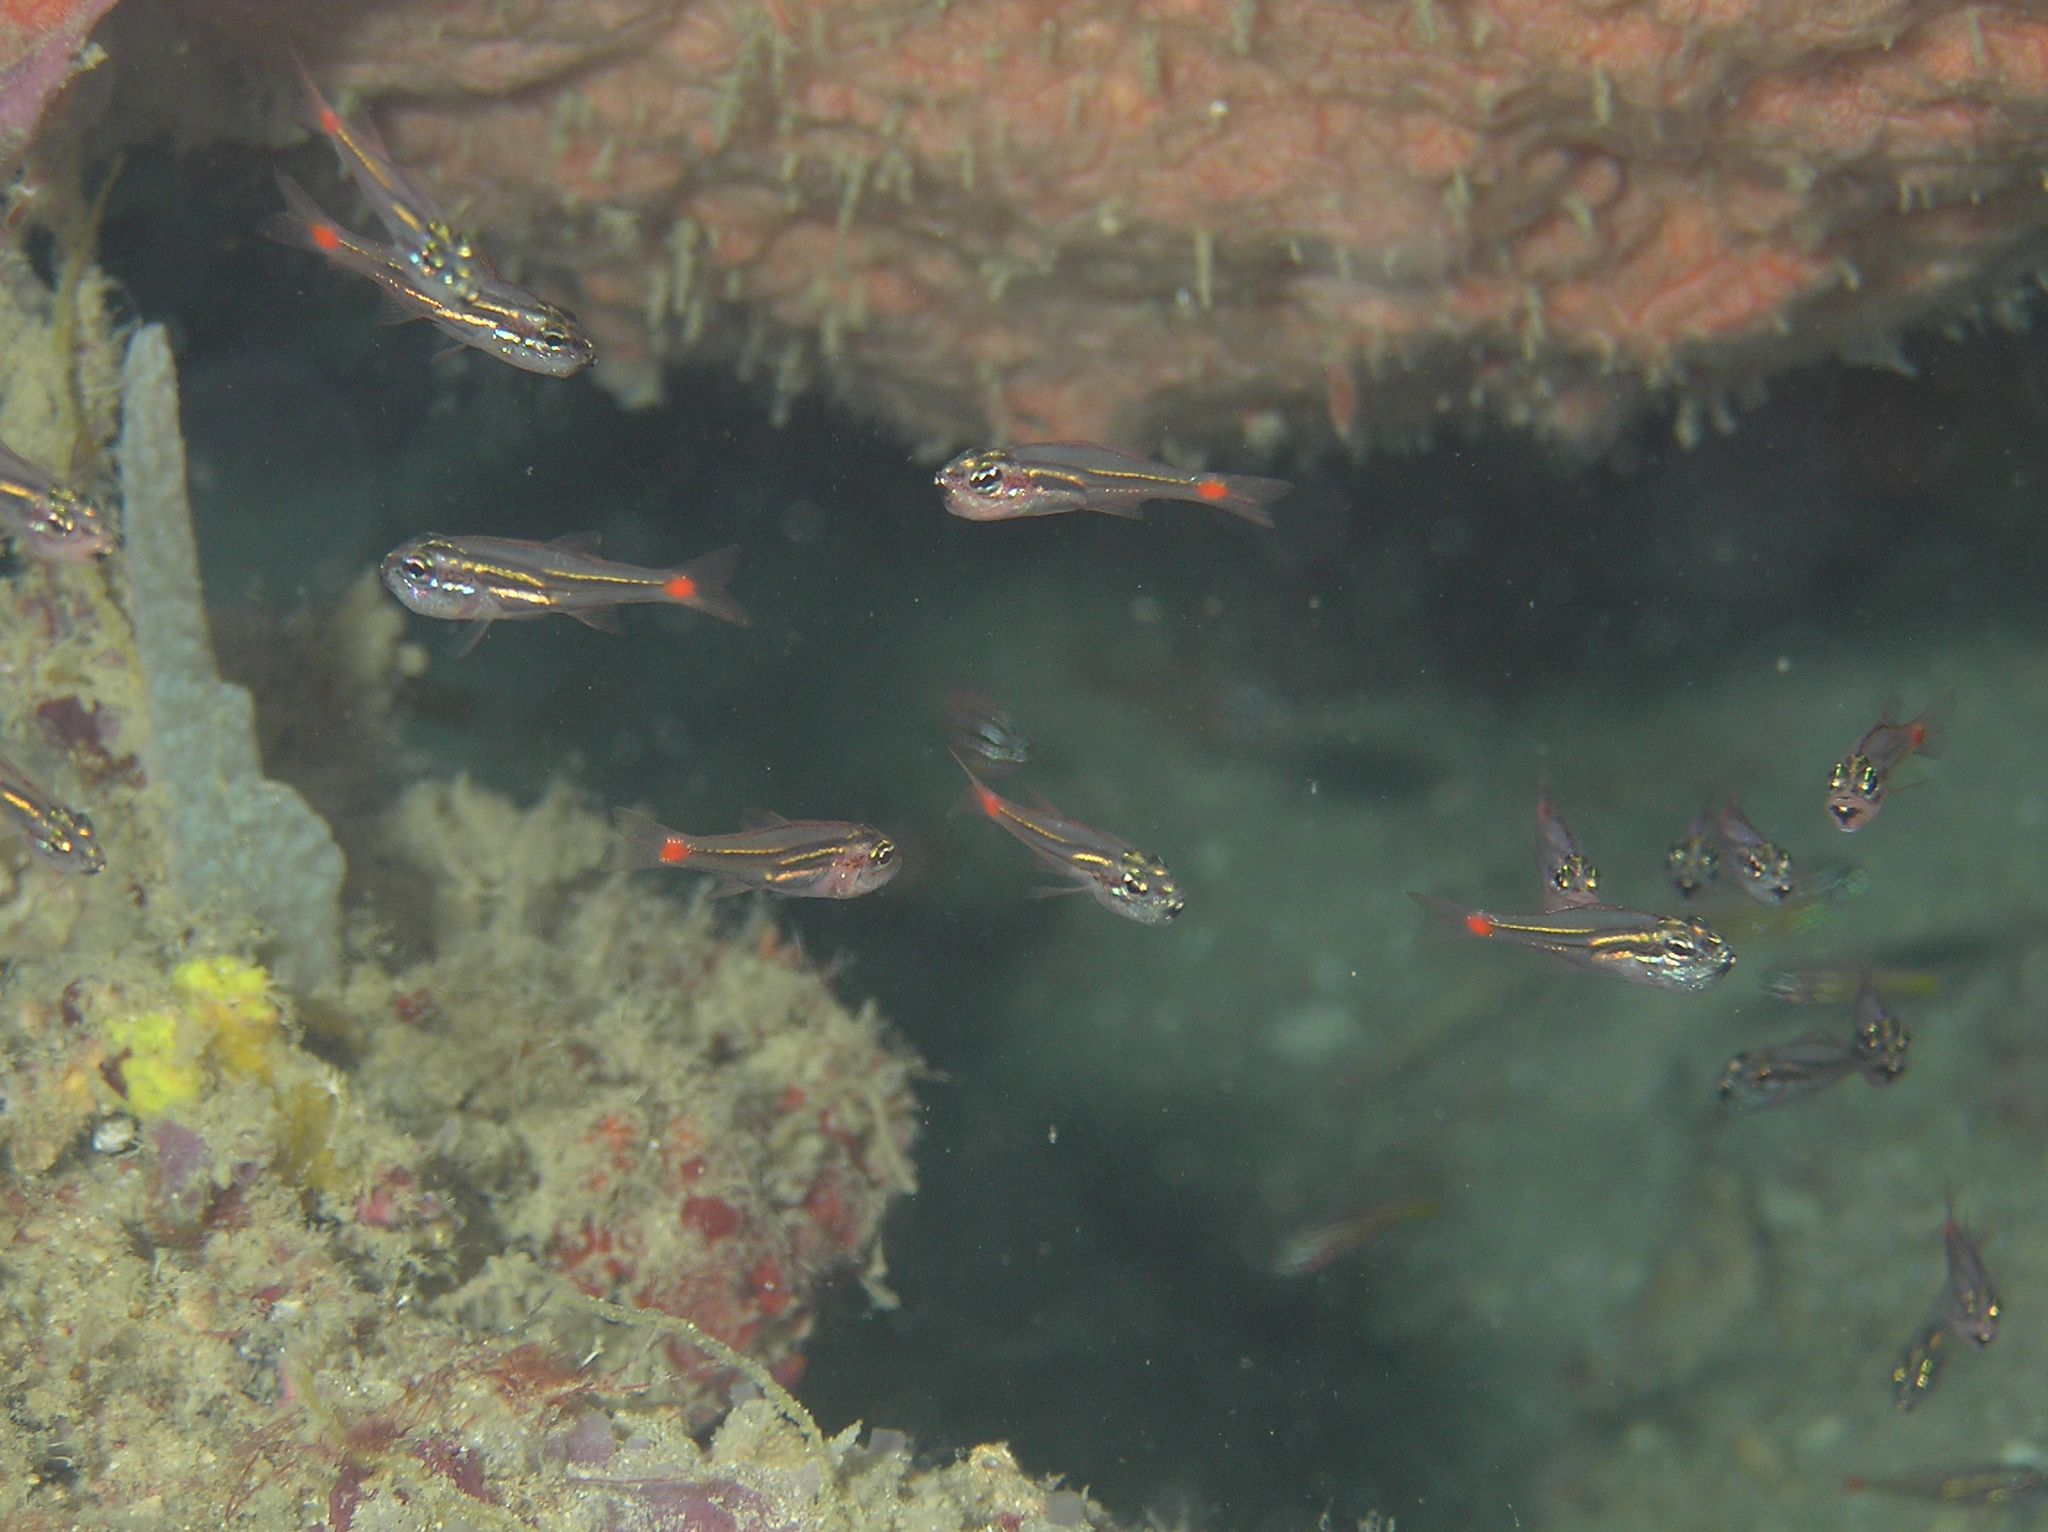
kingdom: Animalia
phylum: Chordata
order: Perciformes
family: Apogonidae
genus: Ostorhinchus
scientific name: Ostorhinchus parvulus
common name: Red-spot cardinalfish
